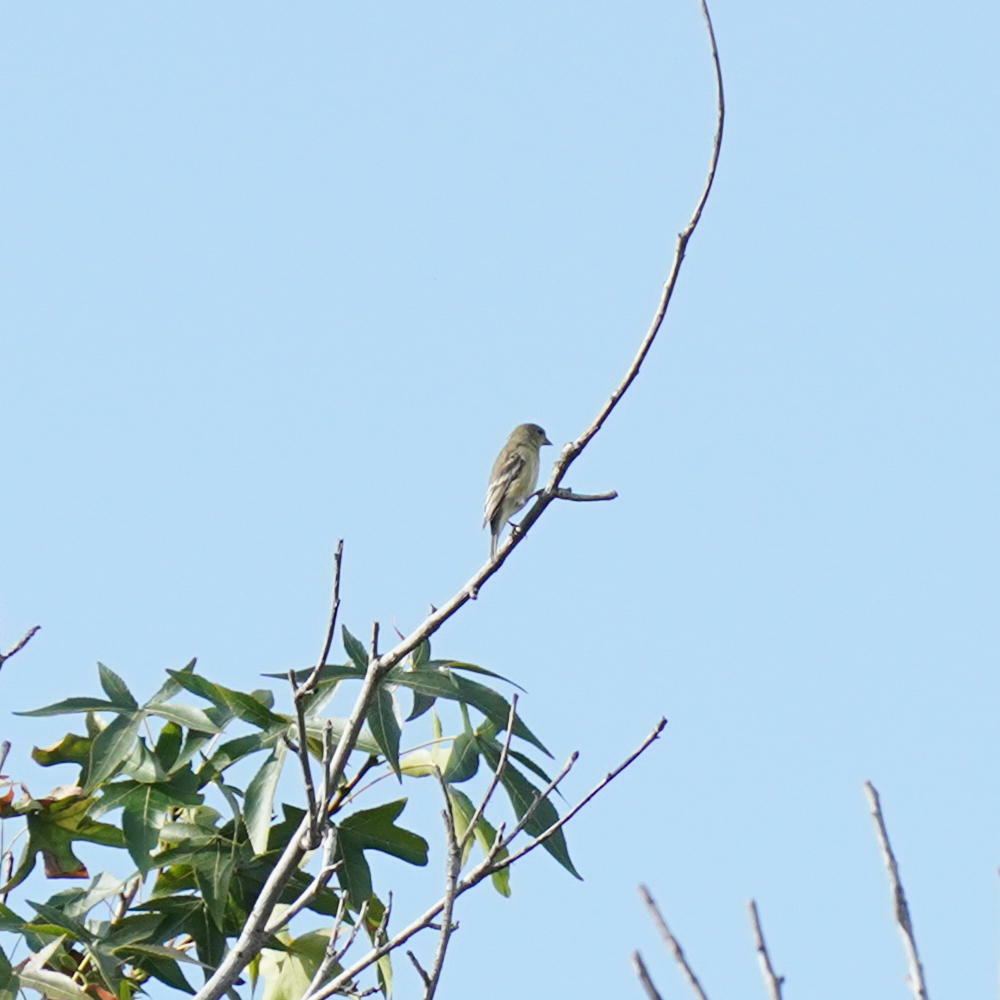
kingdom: Animalia
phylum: Chordata
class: Aves
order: Passeriformes
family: Fringillidae
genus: Spinus
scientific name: Spinus psaltria
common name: Lesser goldfinch
